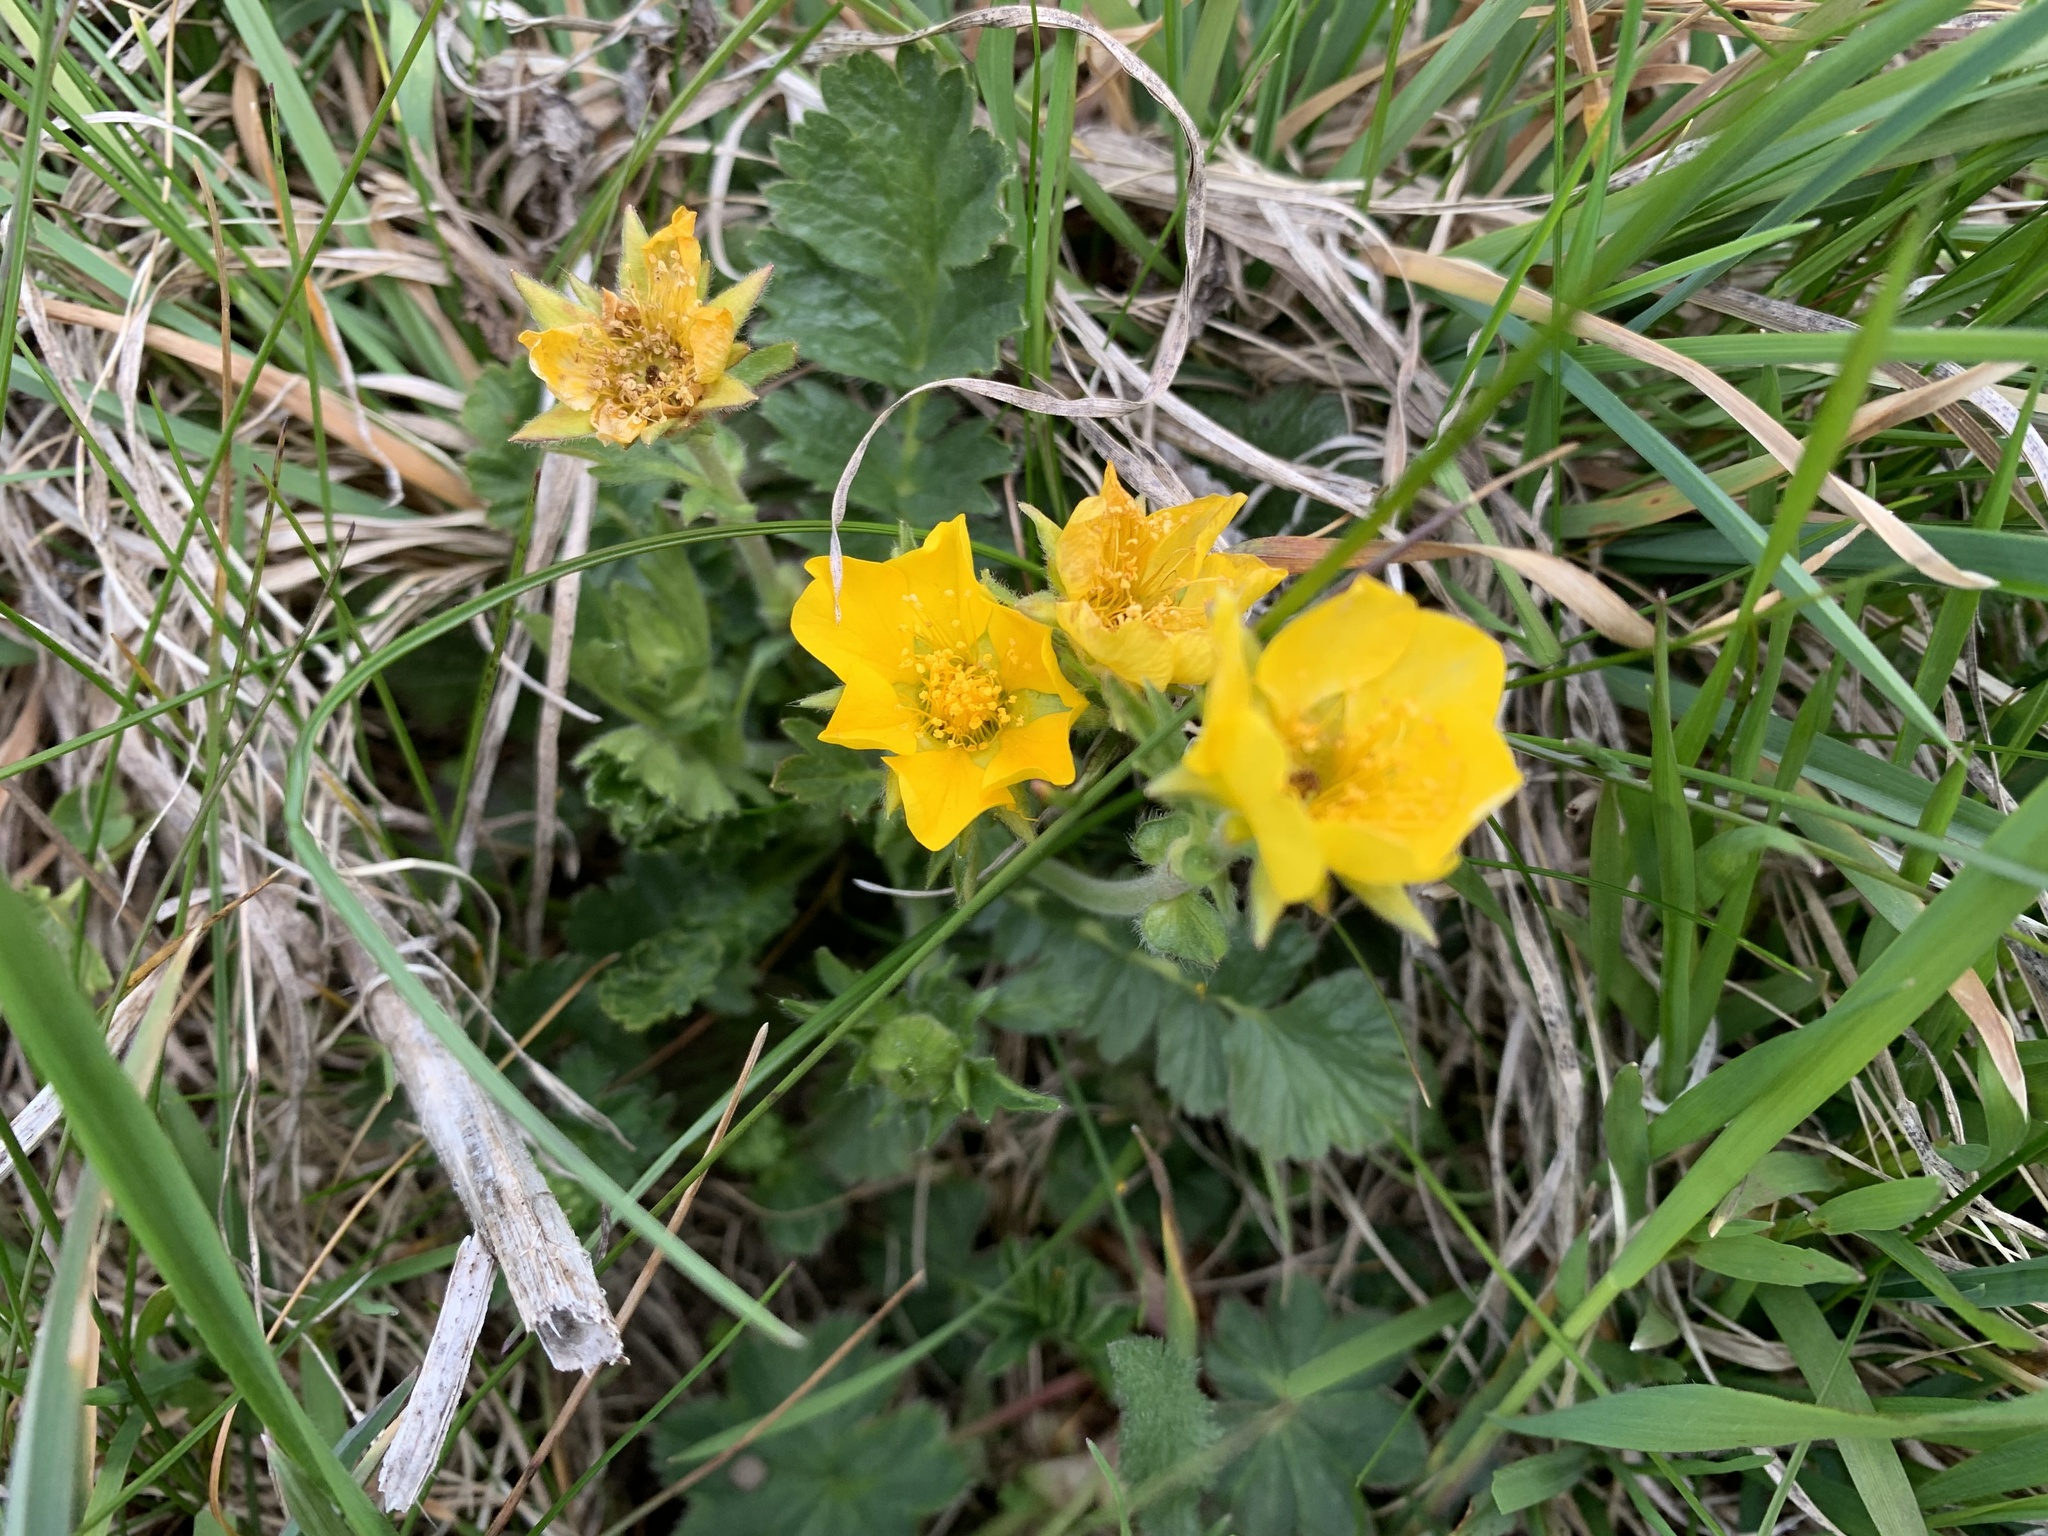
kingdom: Plantae
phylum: Tracheophyta
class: Magnoliopsida
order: Rosales
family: Rosaceae
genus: Geum
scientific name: Geum reptans
